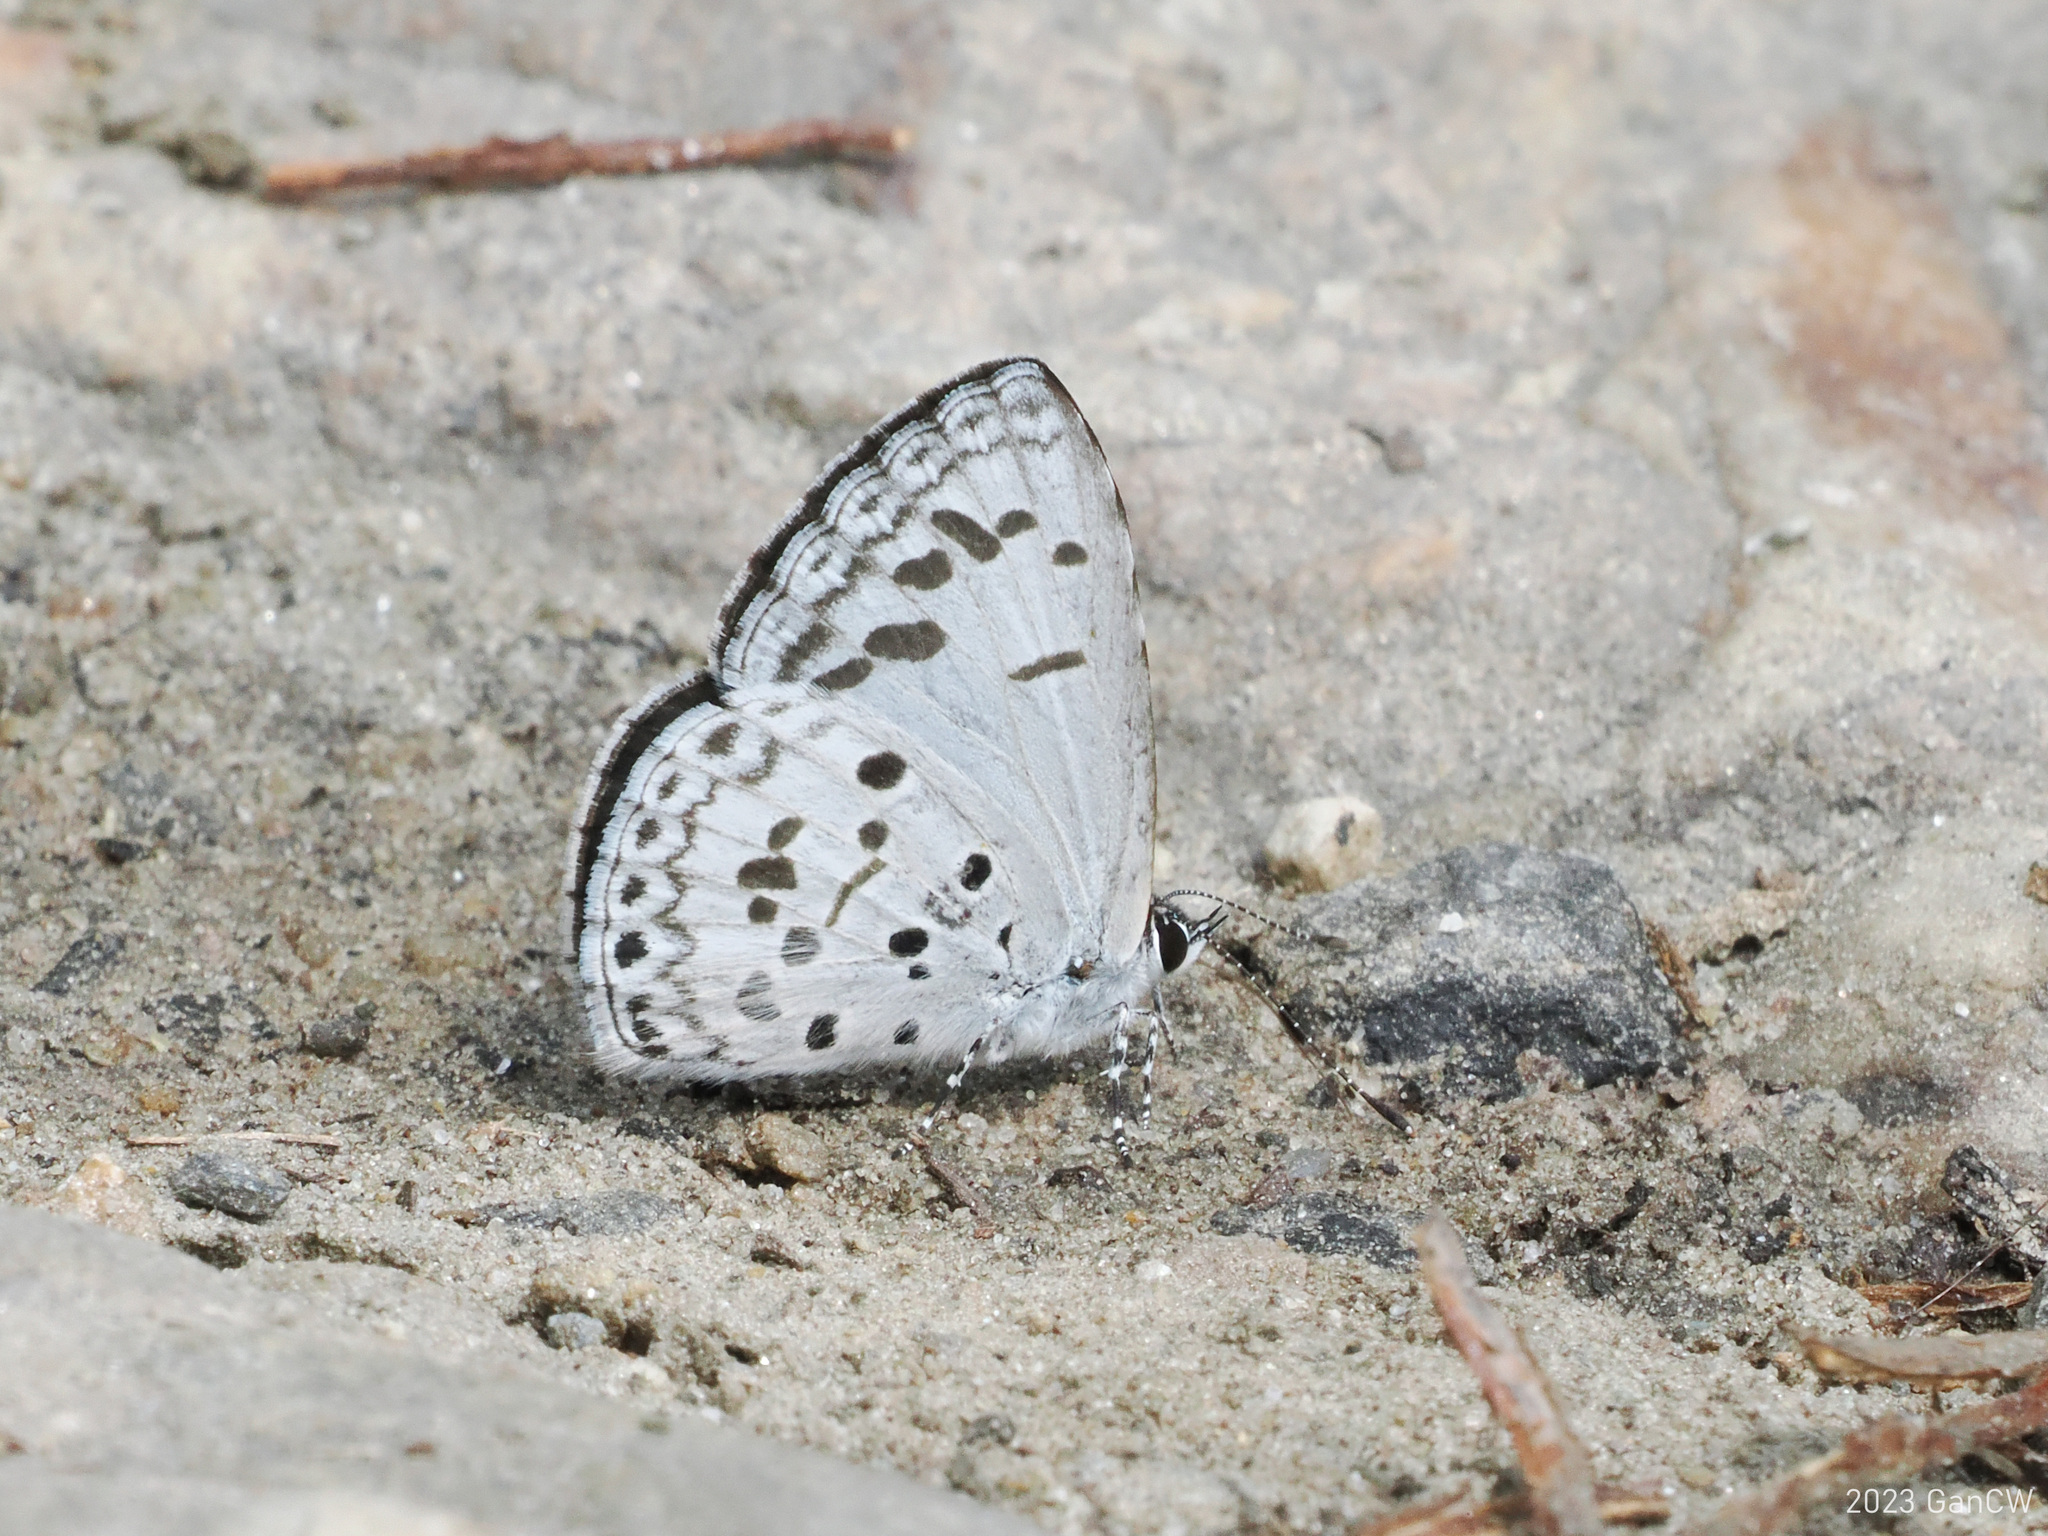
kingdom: Animalia
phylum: Arthropoda
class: Insecta
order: Lepidoptera
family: Lycaenidae
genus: Acytolepis
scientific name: Acytolepis puspa
